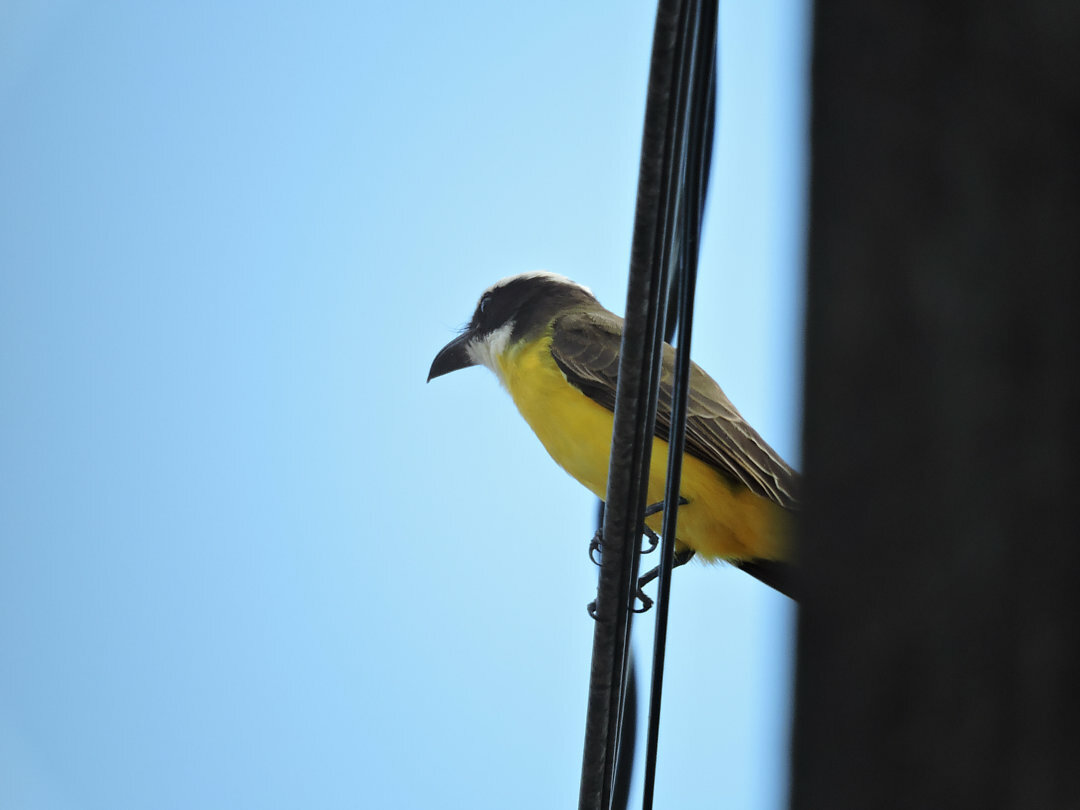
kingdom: Animalia
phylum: Chordata
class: Aves
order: Passeriformes
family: Tyrannidae
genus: Megarynchus
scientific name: Megarynchus pitangua
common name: Boat-billed flycatcher
